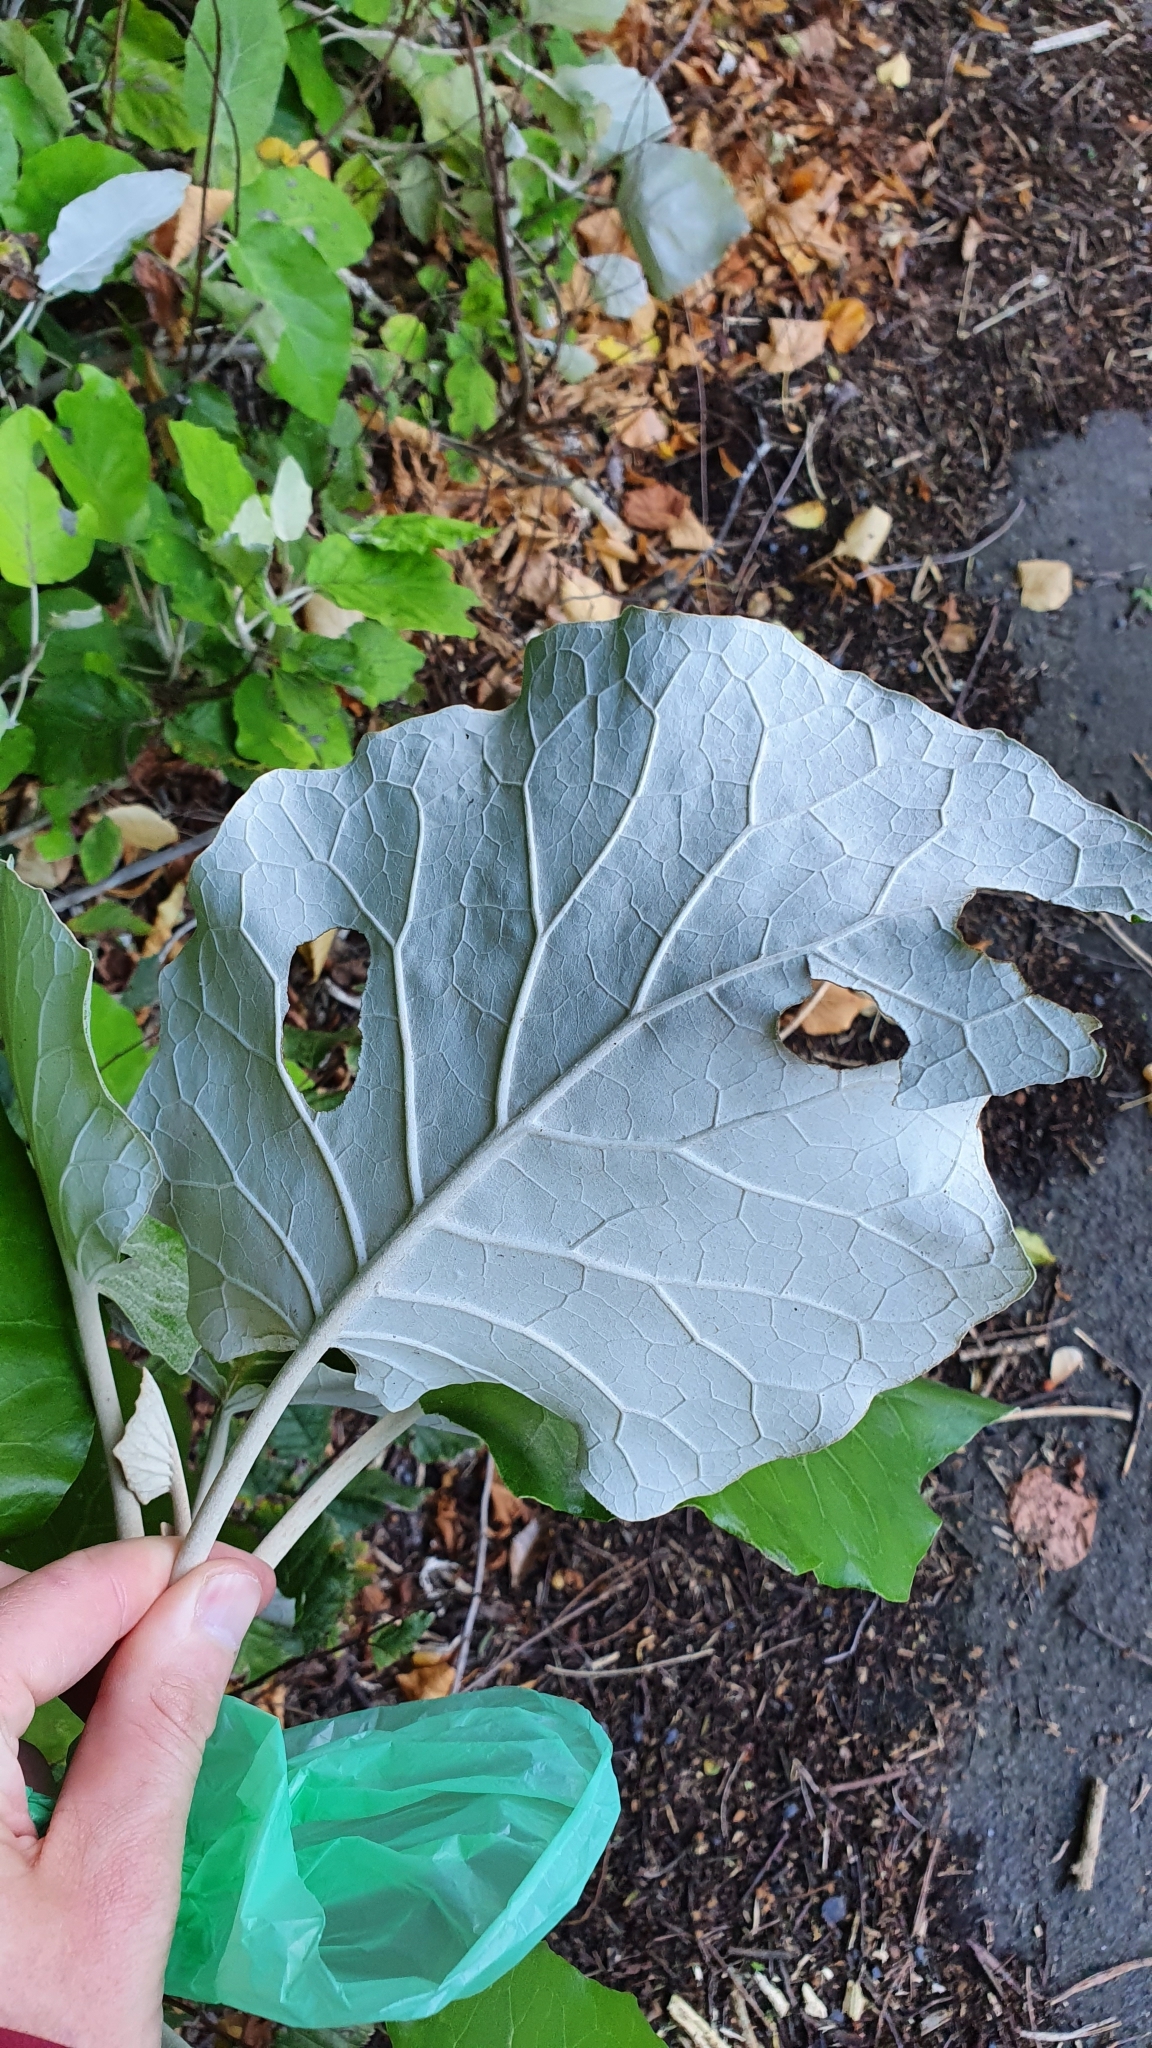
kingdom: Plantae
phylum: Tracheophyta
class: Magnoliopsida
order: Asterales
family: Asteraceae
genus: Brachyglottis
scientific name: Brachyglottis repanda
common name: Hedge ragwort
